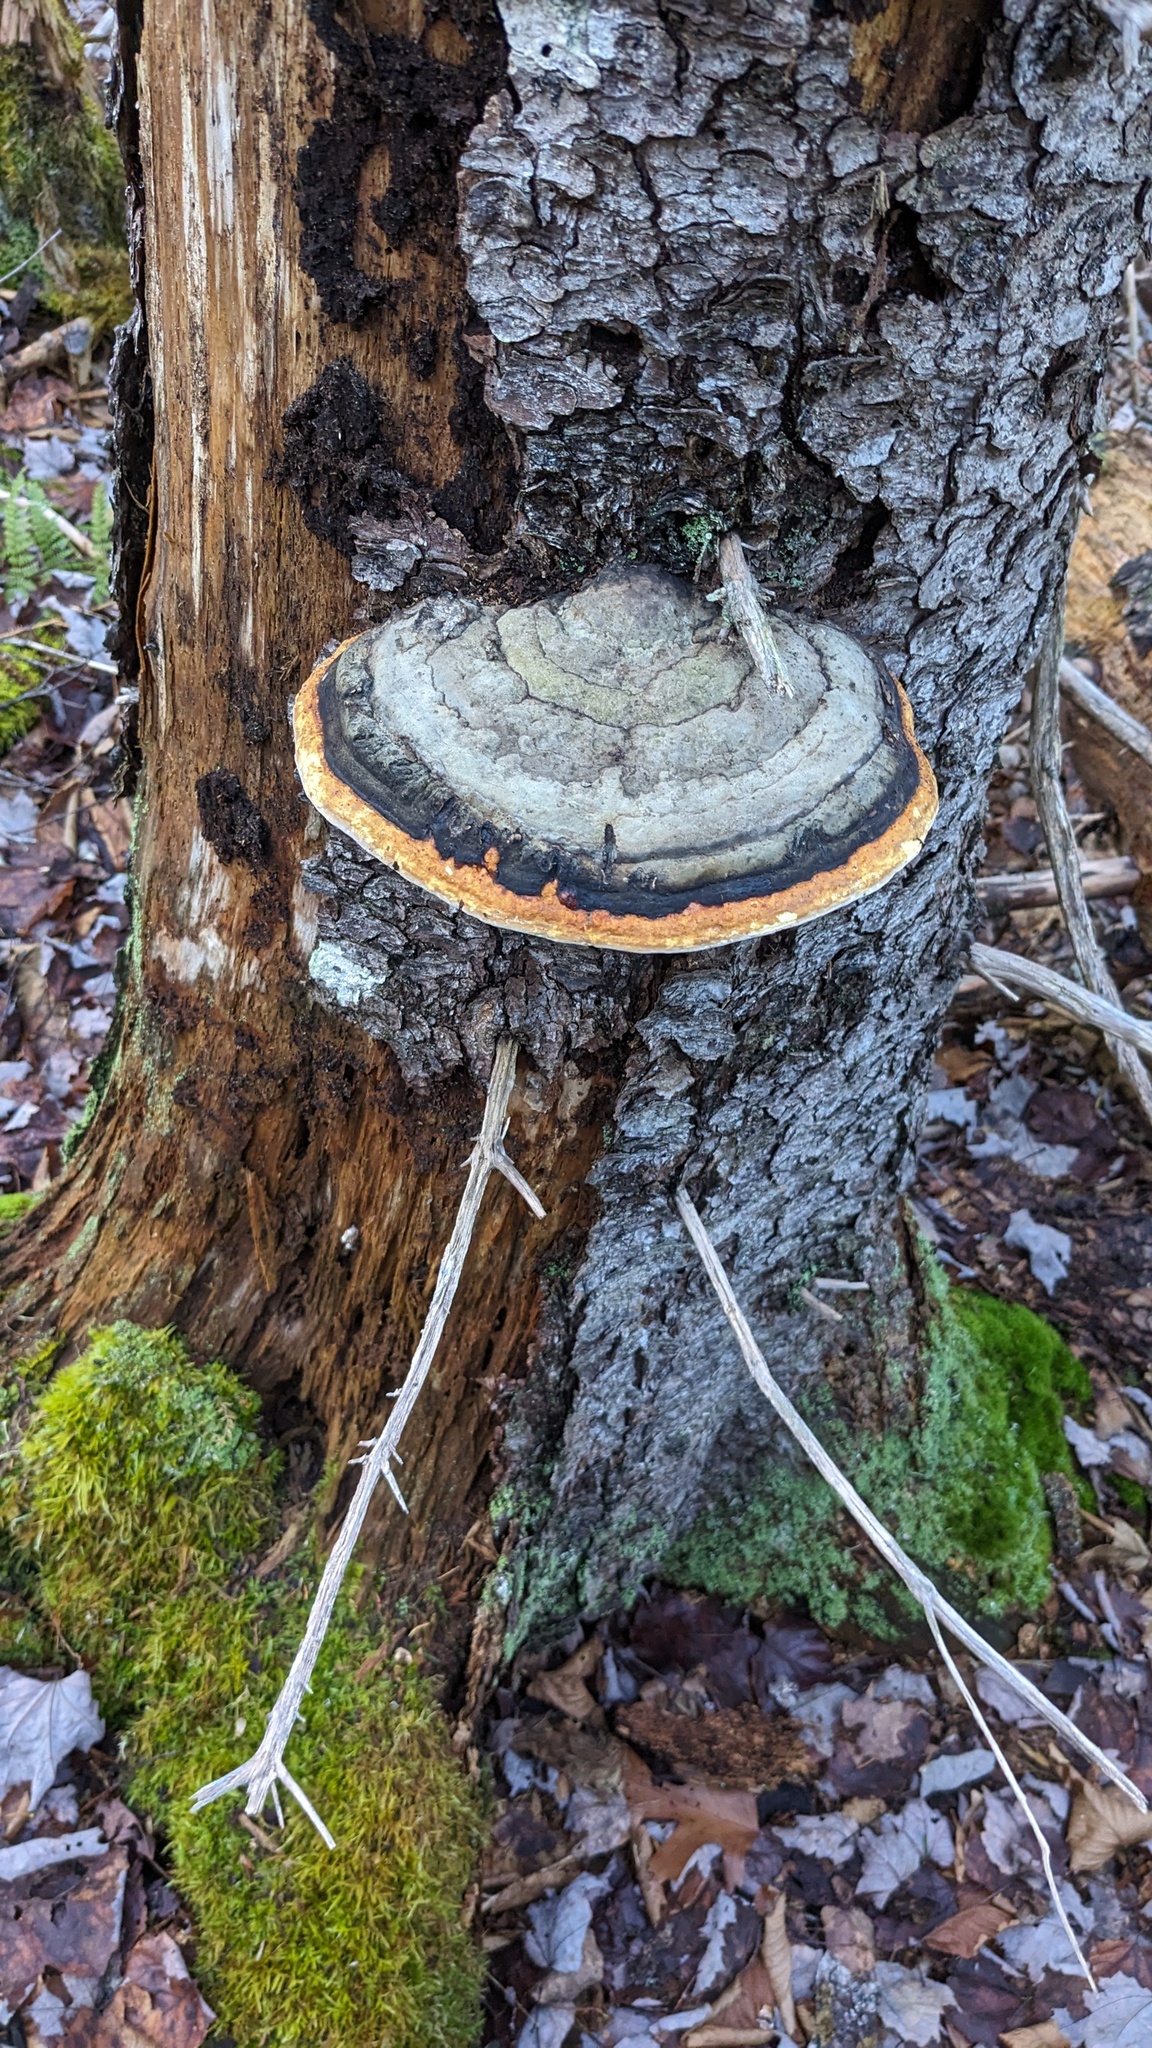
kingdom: Fungi
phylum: Basidiomycota
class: Agaricomycetes
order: Polyporales
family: Fomitopsidaceae
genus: Fomitopsis
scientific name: Fomitopsis mounceae
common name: Northern red belt
